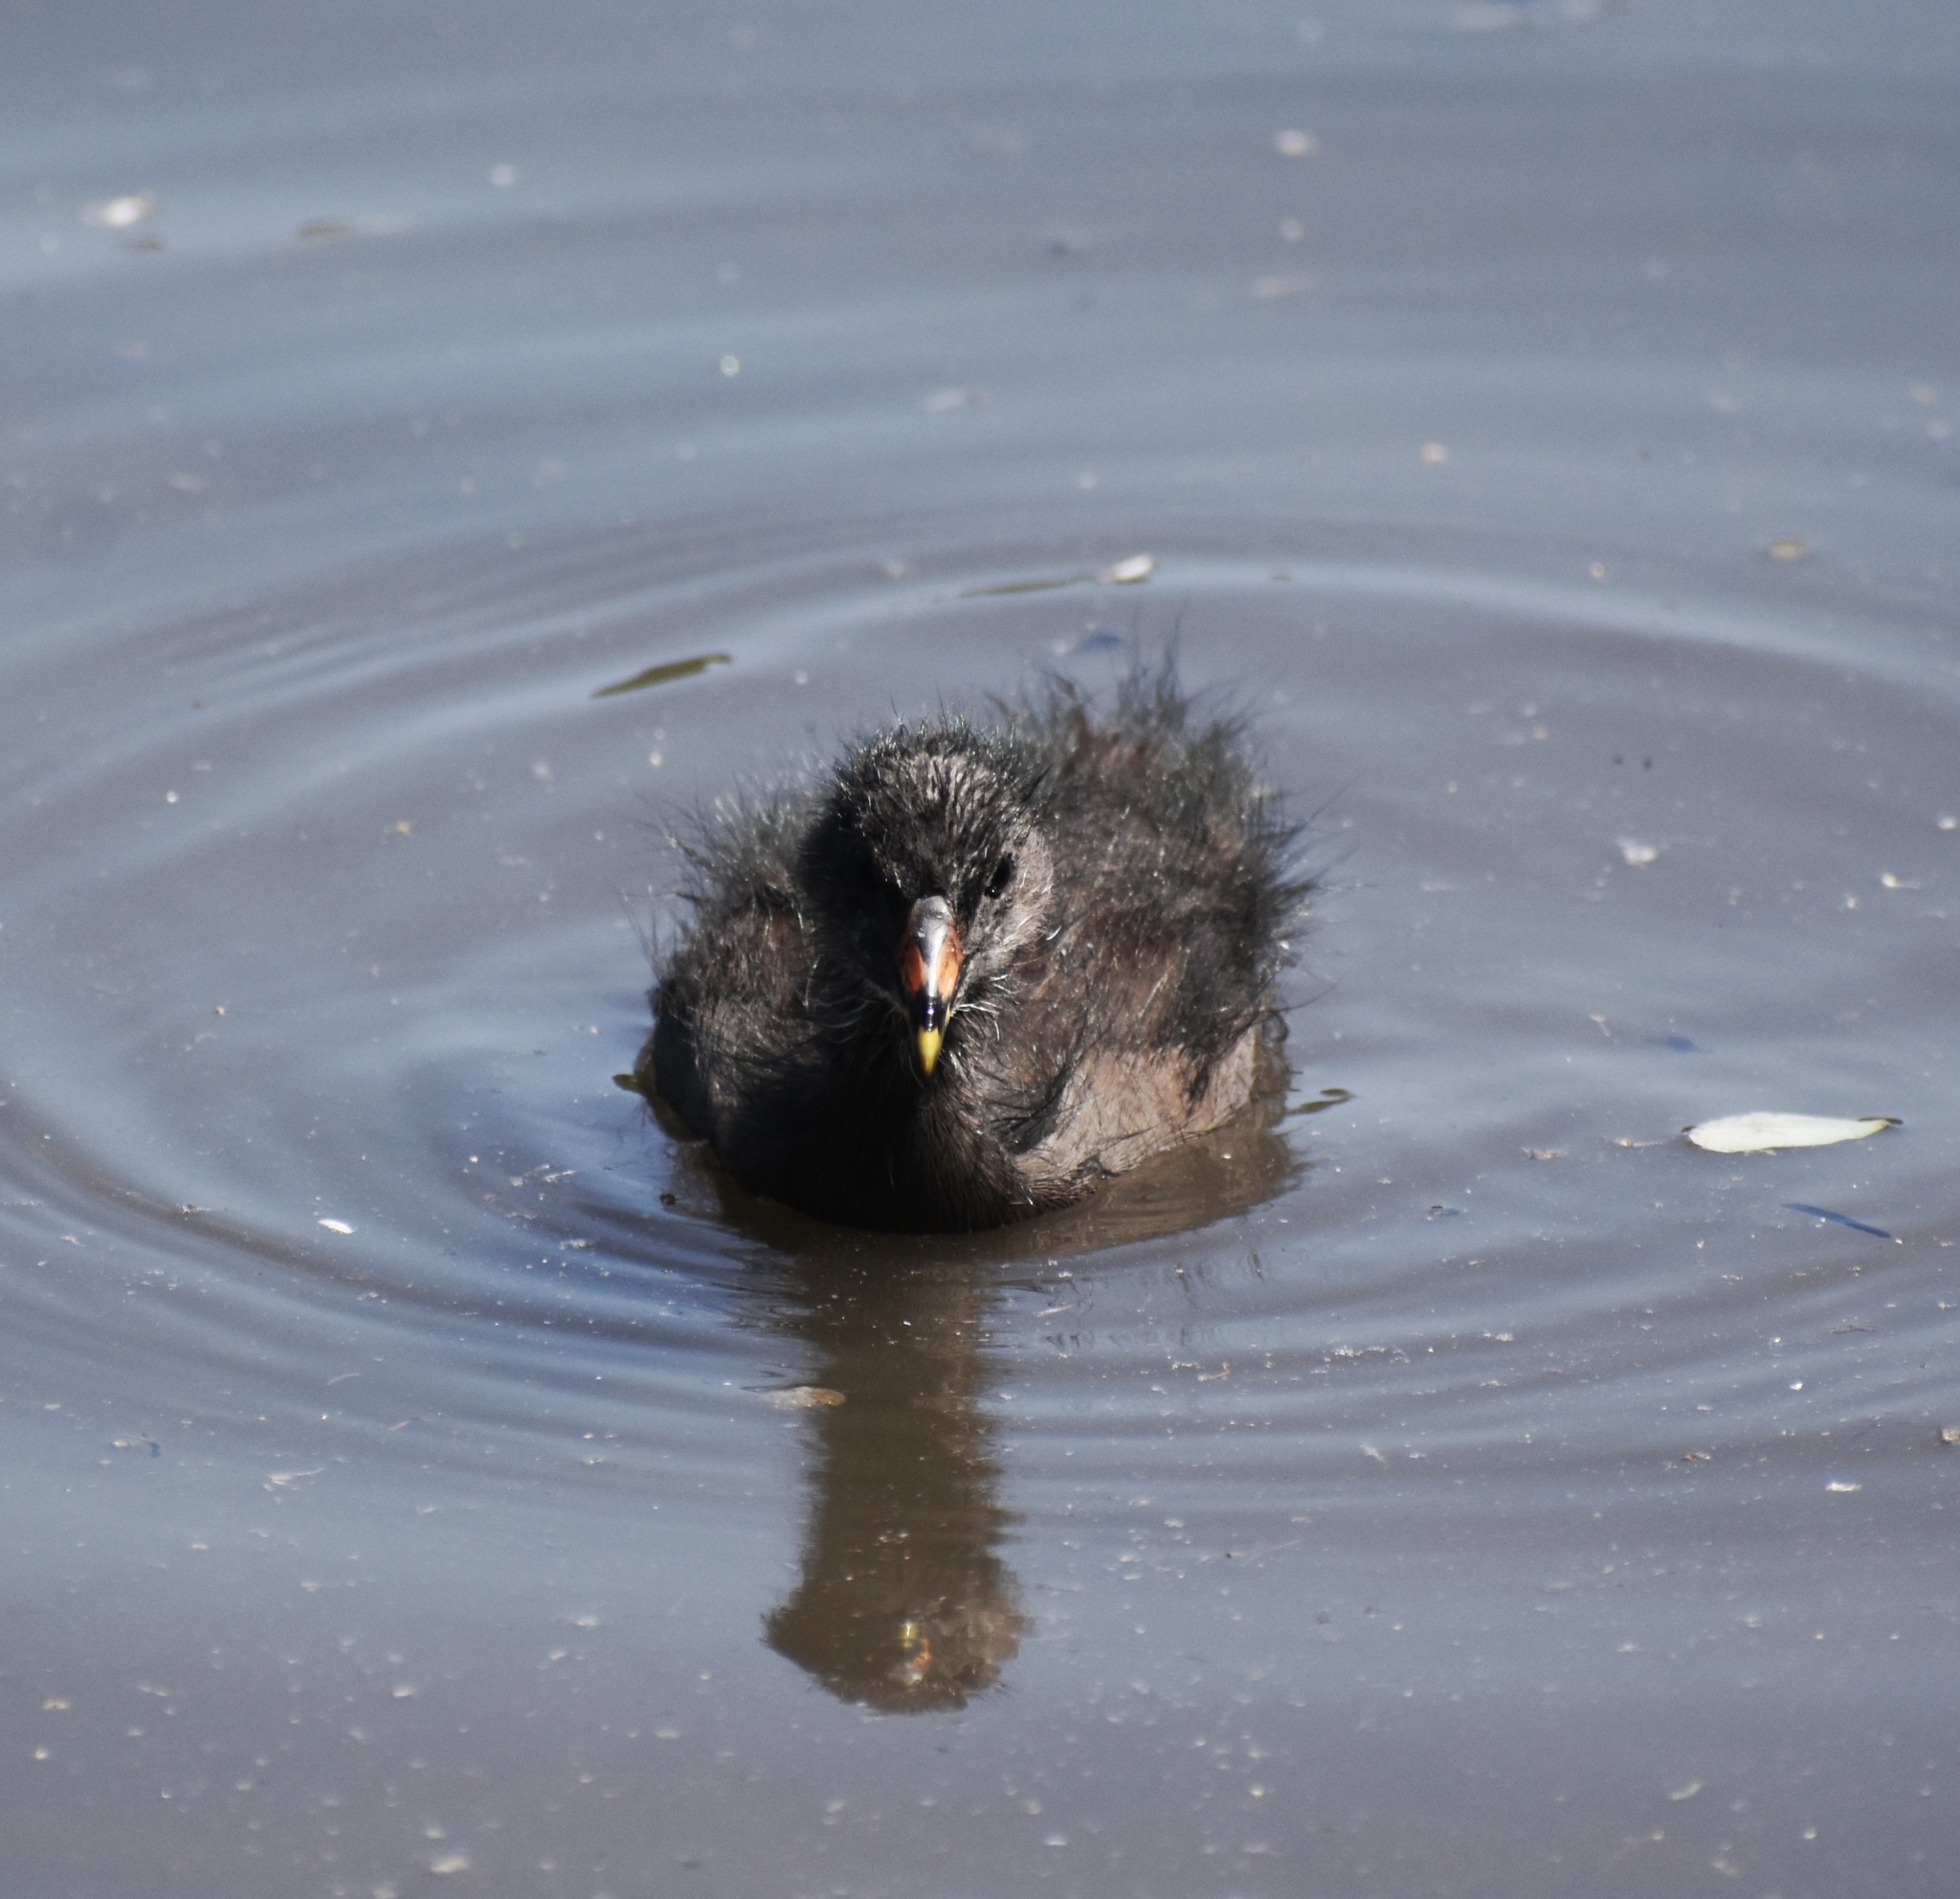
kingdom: Animalia
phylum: Chordata
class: Aves
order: Gruiformes
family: Rallidae
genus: Gallinula
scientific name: Gallinula chloropus
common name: Common moorhen
